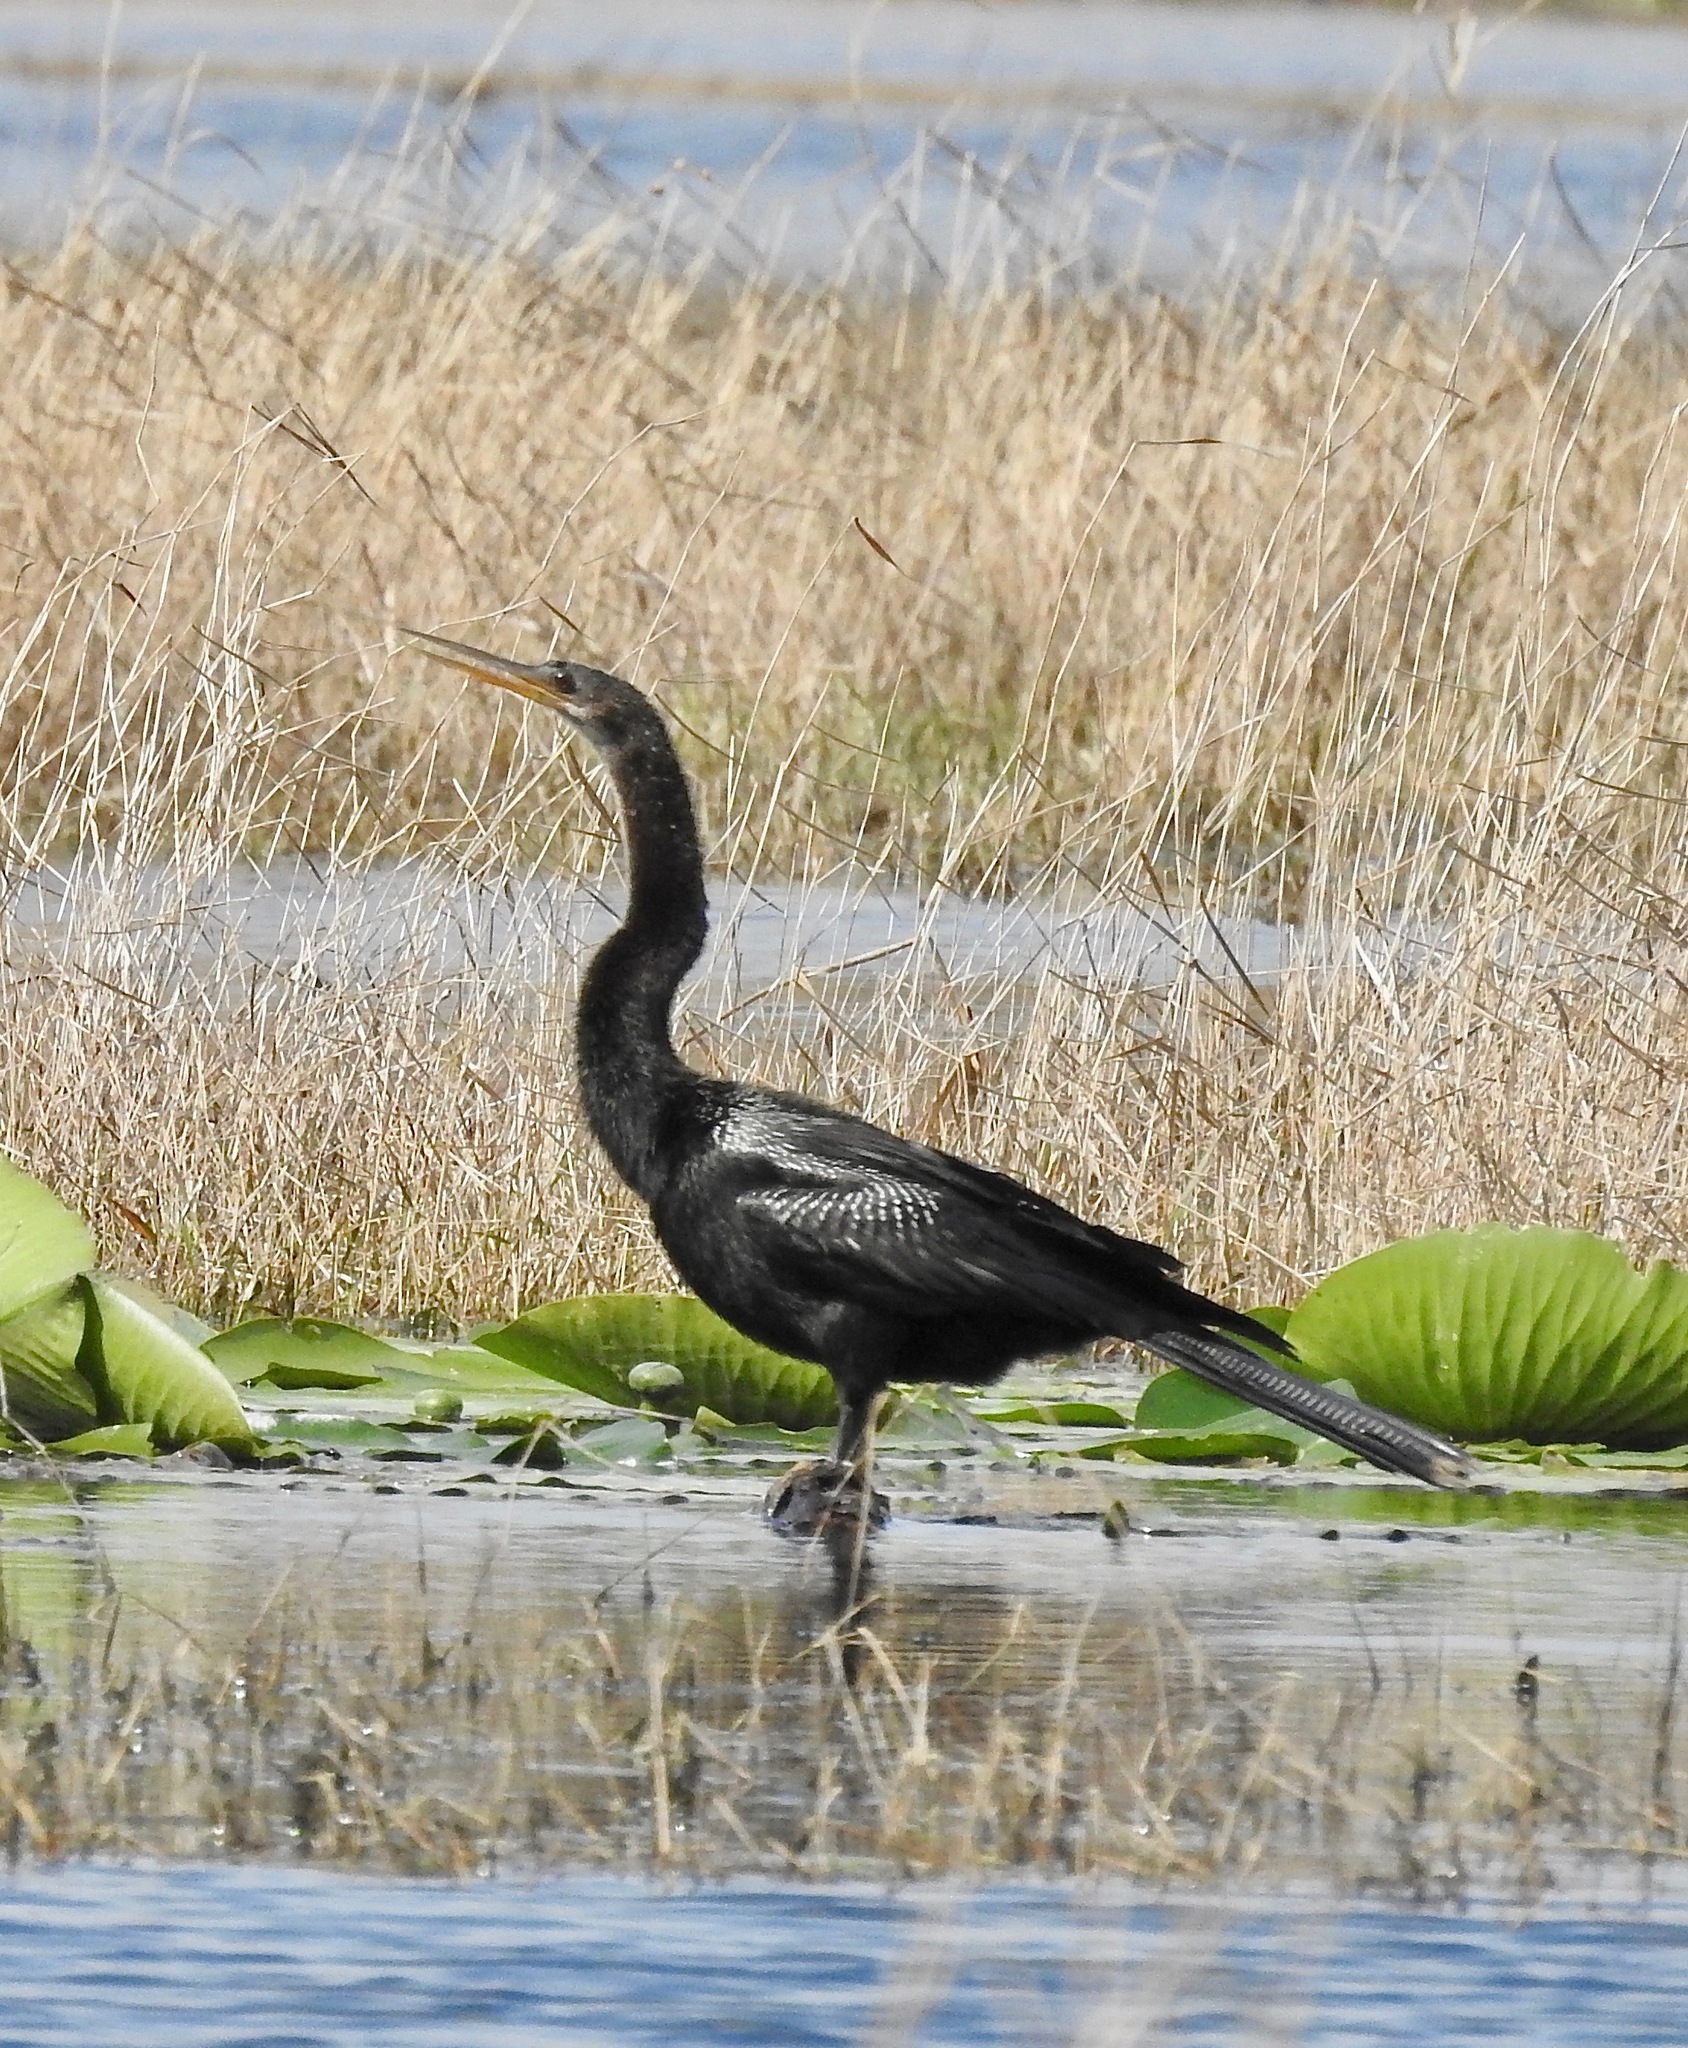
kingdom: Animalia
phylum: Chordata
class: Aves
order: Suliformes
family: Anhingidae
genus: Anhinga
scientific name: Anhinga anhinga
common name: Anhinga
